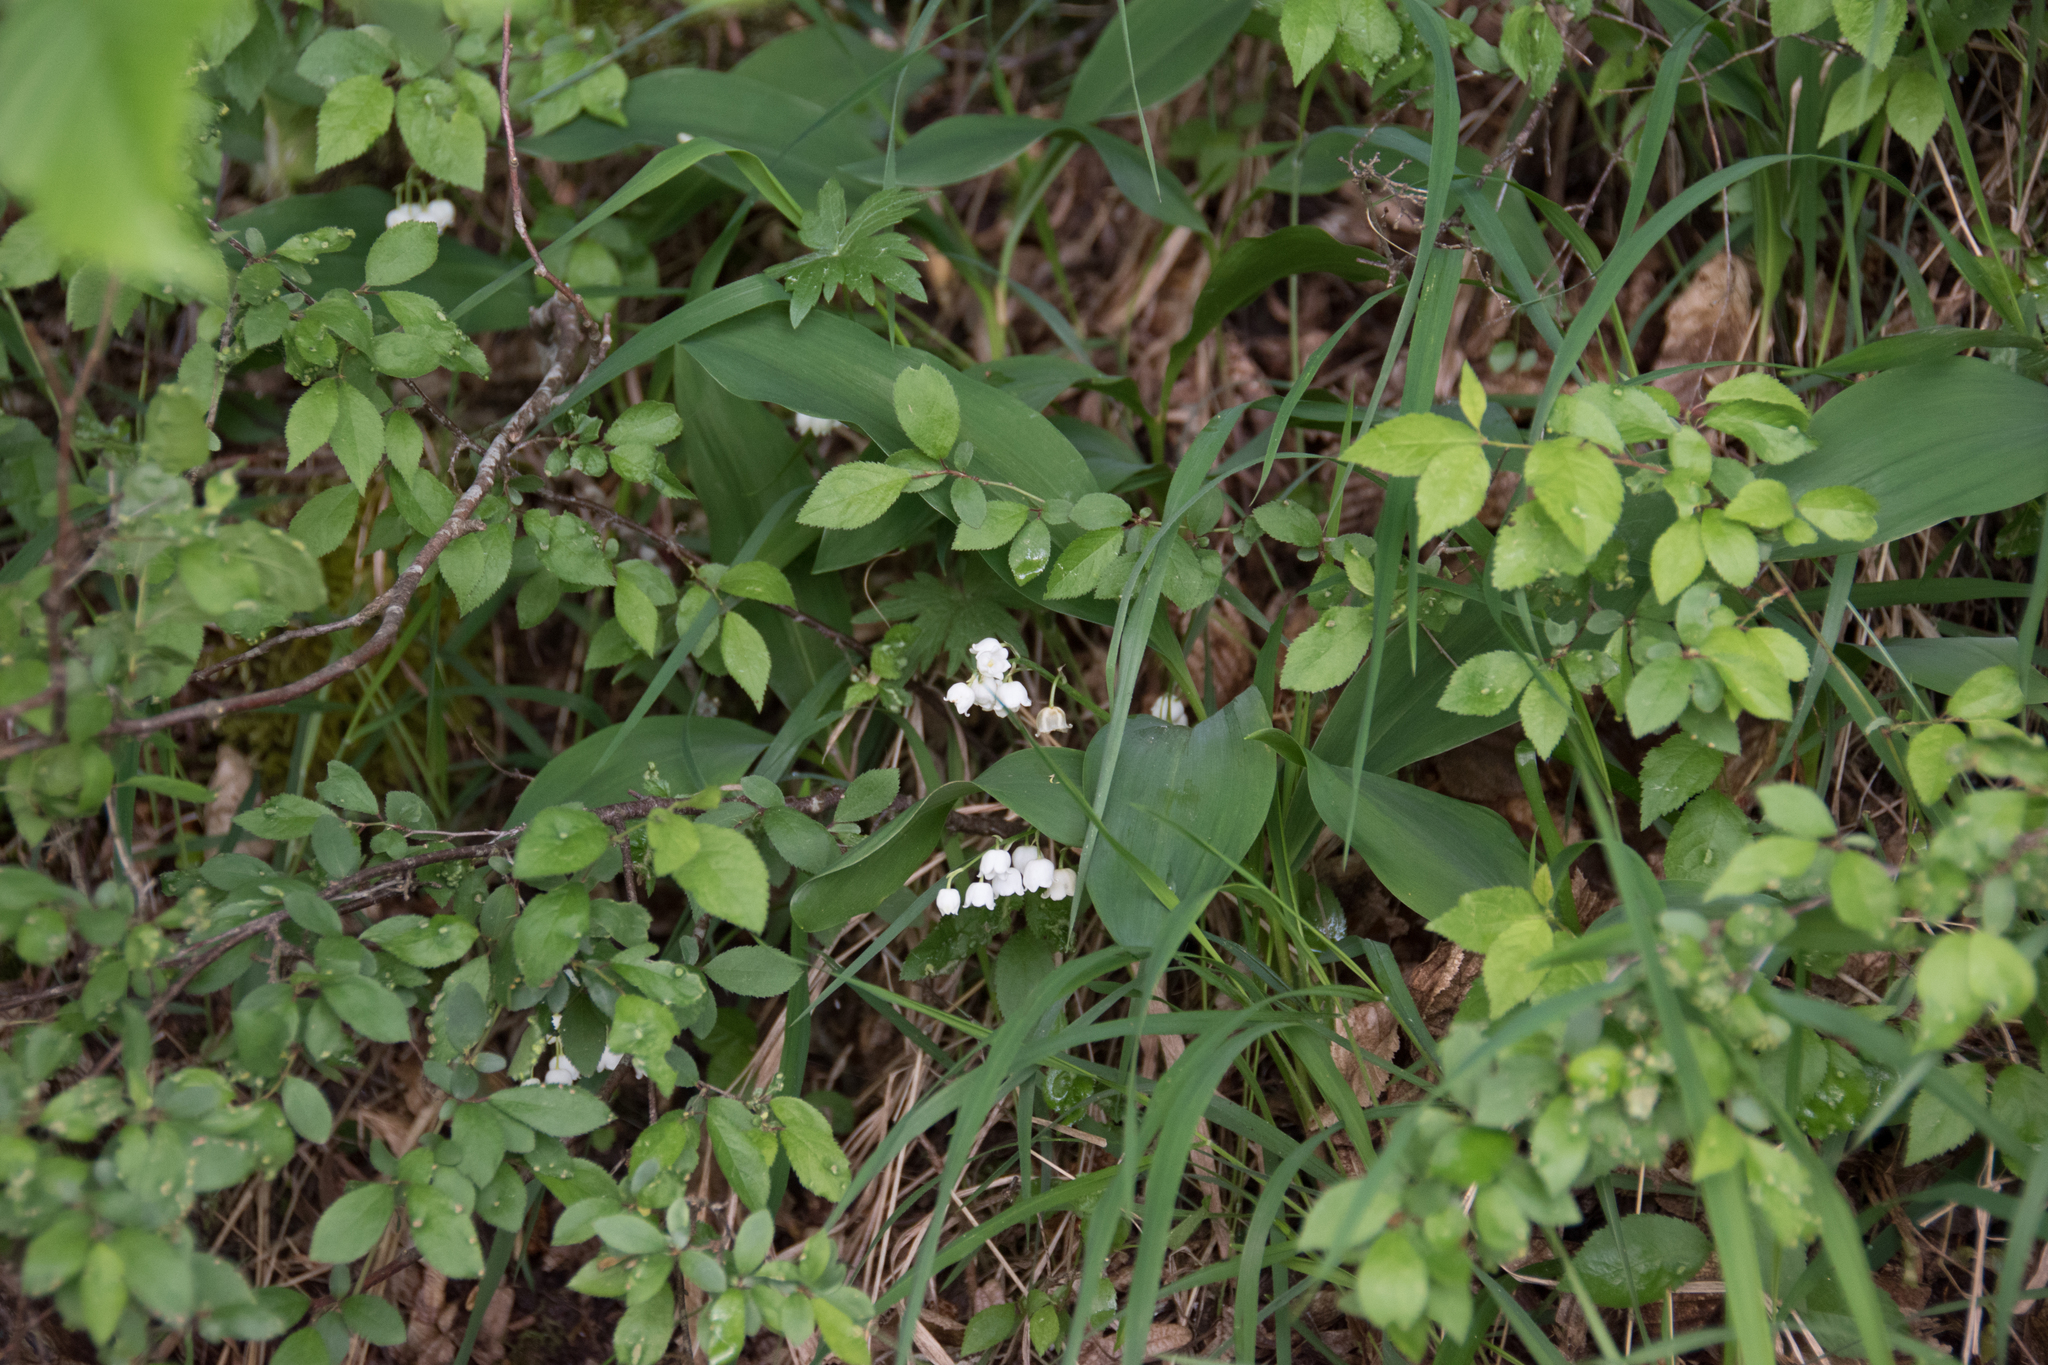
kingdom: Plantae
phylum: Tracheophyta
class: Liliopsida
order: Asparagales
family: Asparagaceae
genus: Convallaria
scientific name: Convallaria majalis
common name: Lily-of-the-valley
